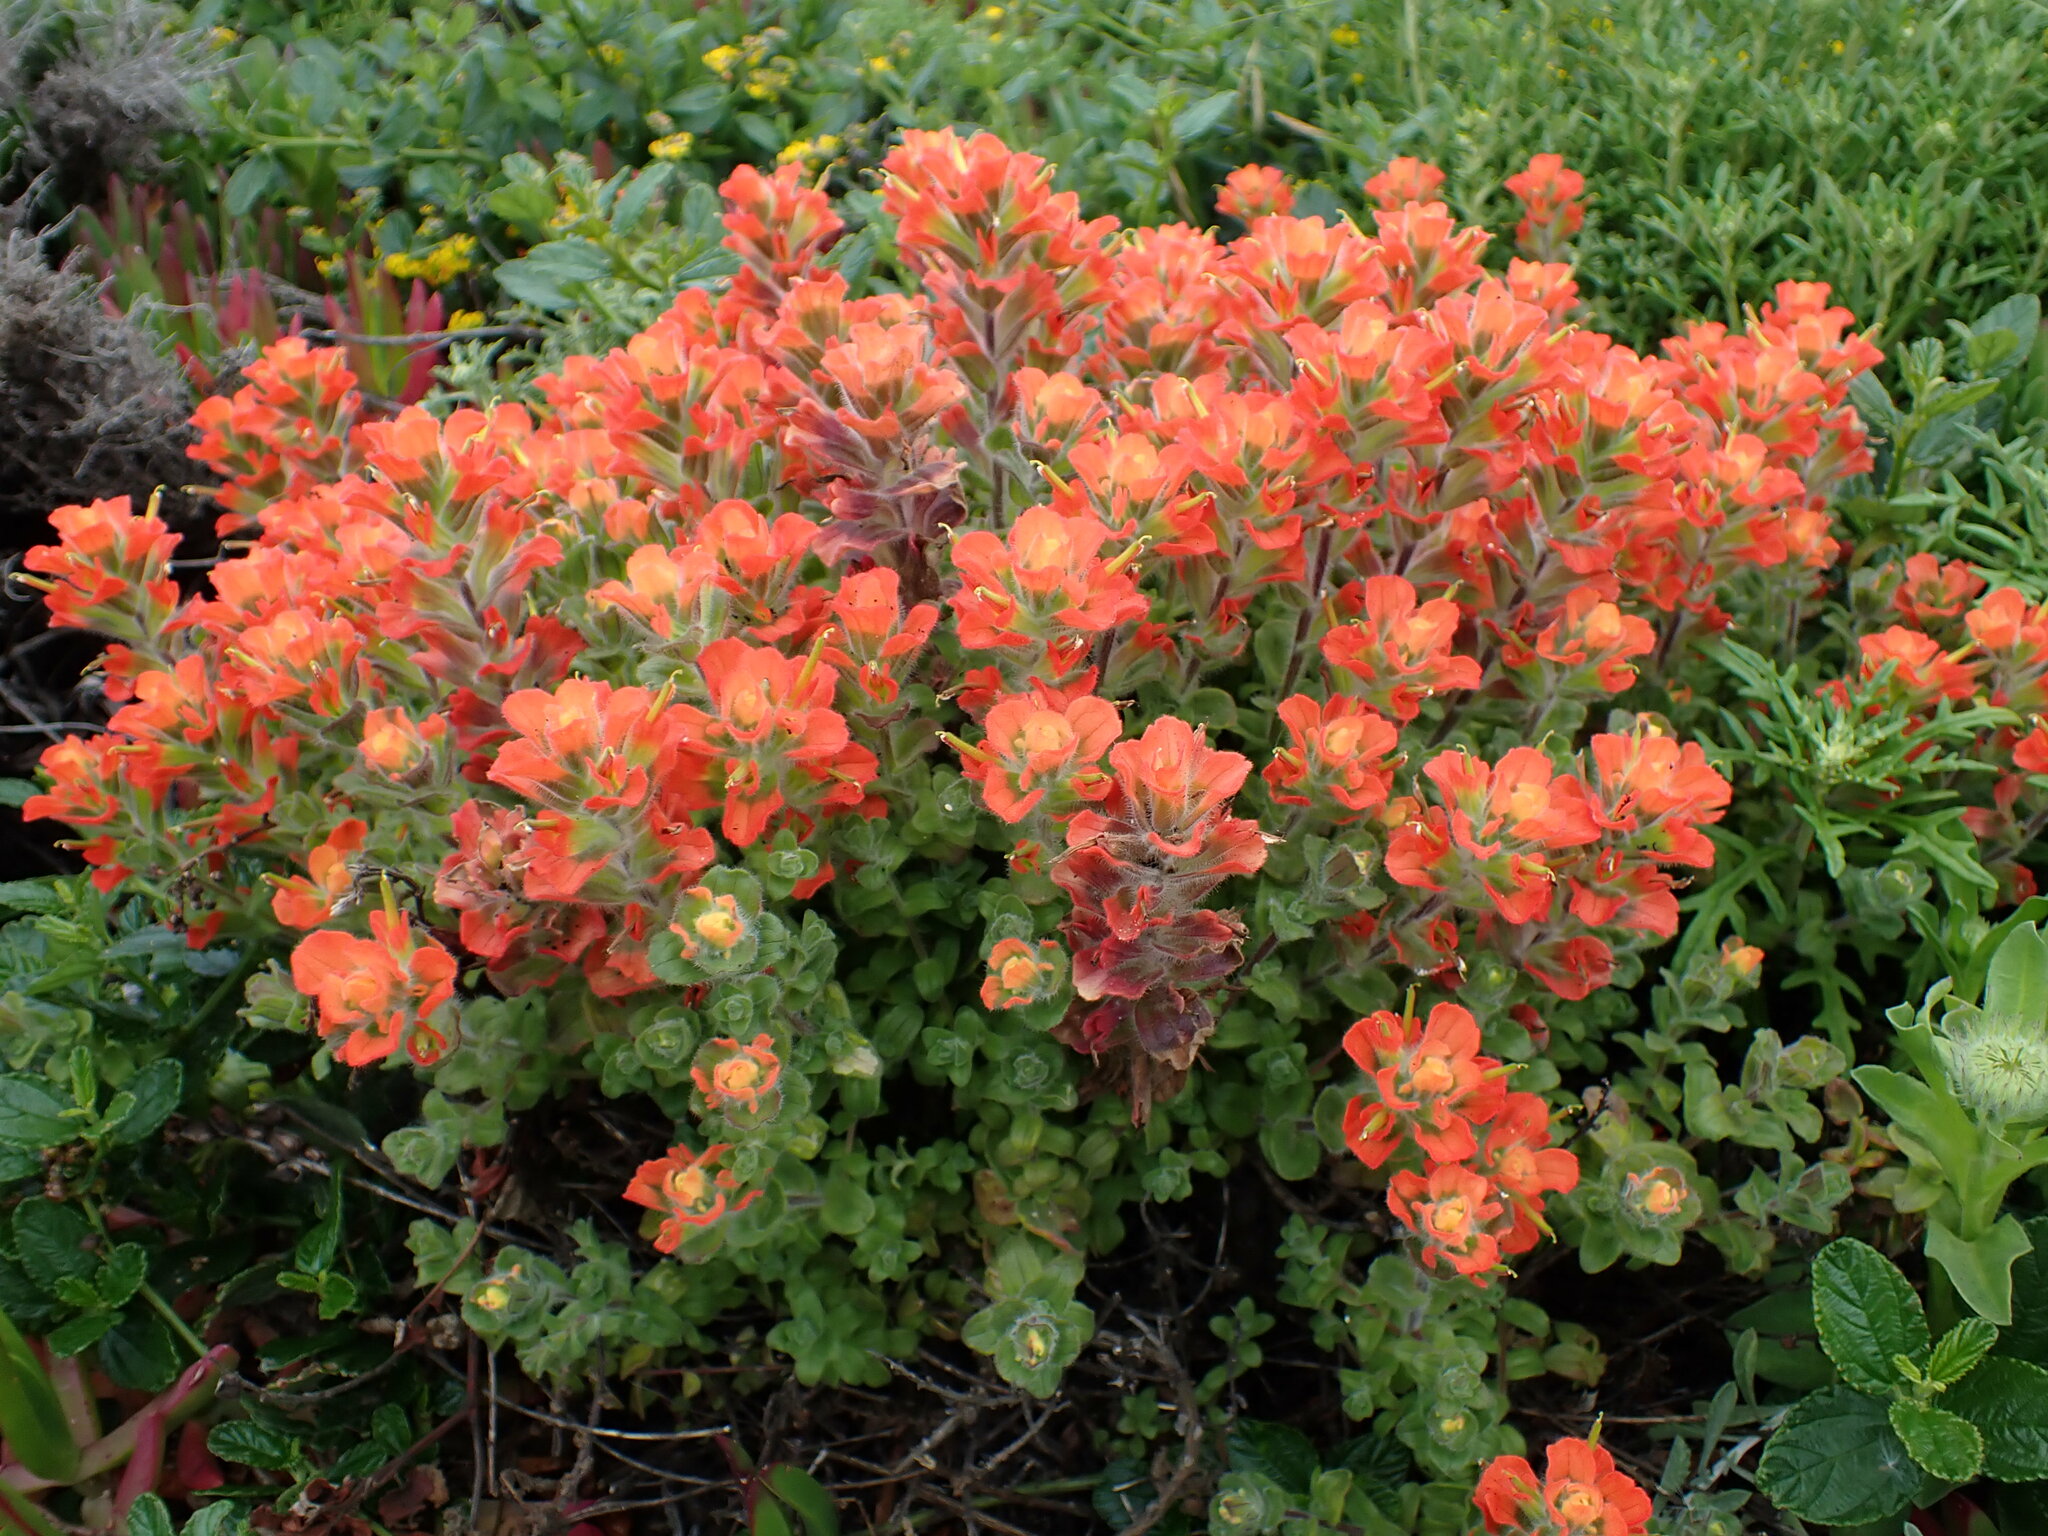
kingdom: Plantae
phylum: Tracheophyta
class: Magnoliopsida
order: Lamiales
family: Orobanchaceae
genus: Castilleja
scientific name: Castilleja latifolia
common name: Monterey indian paintbrush
